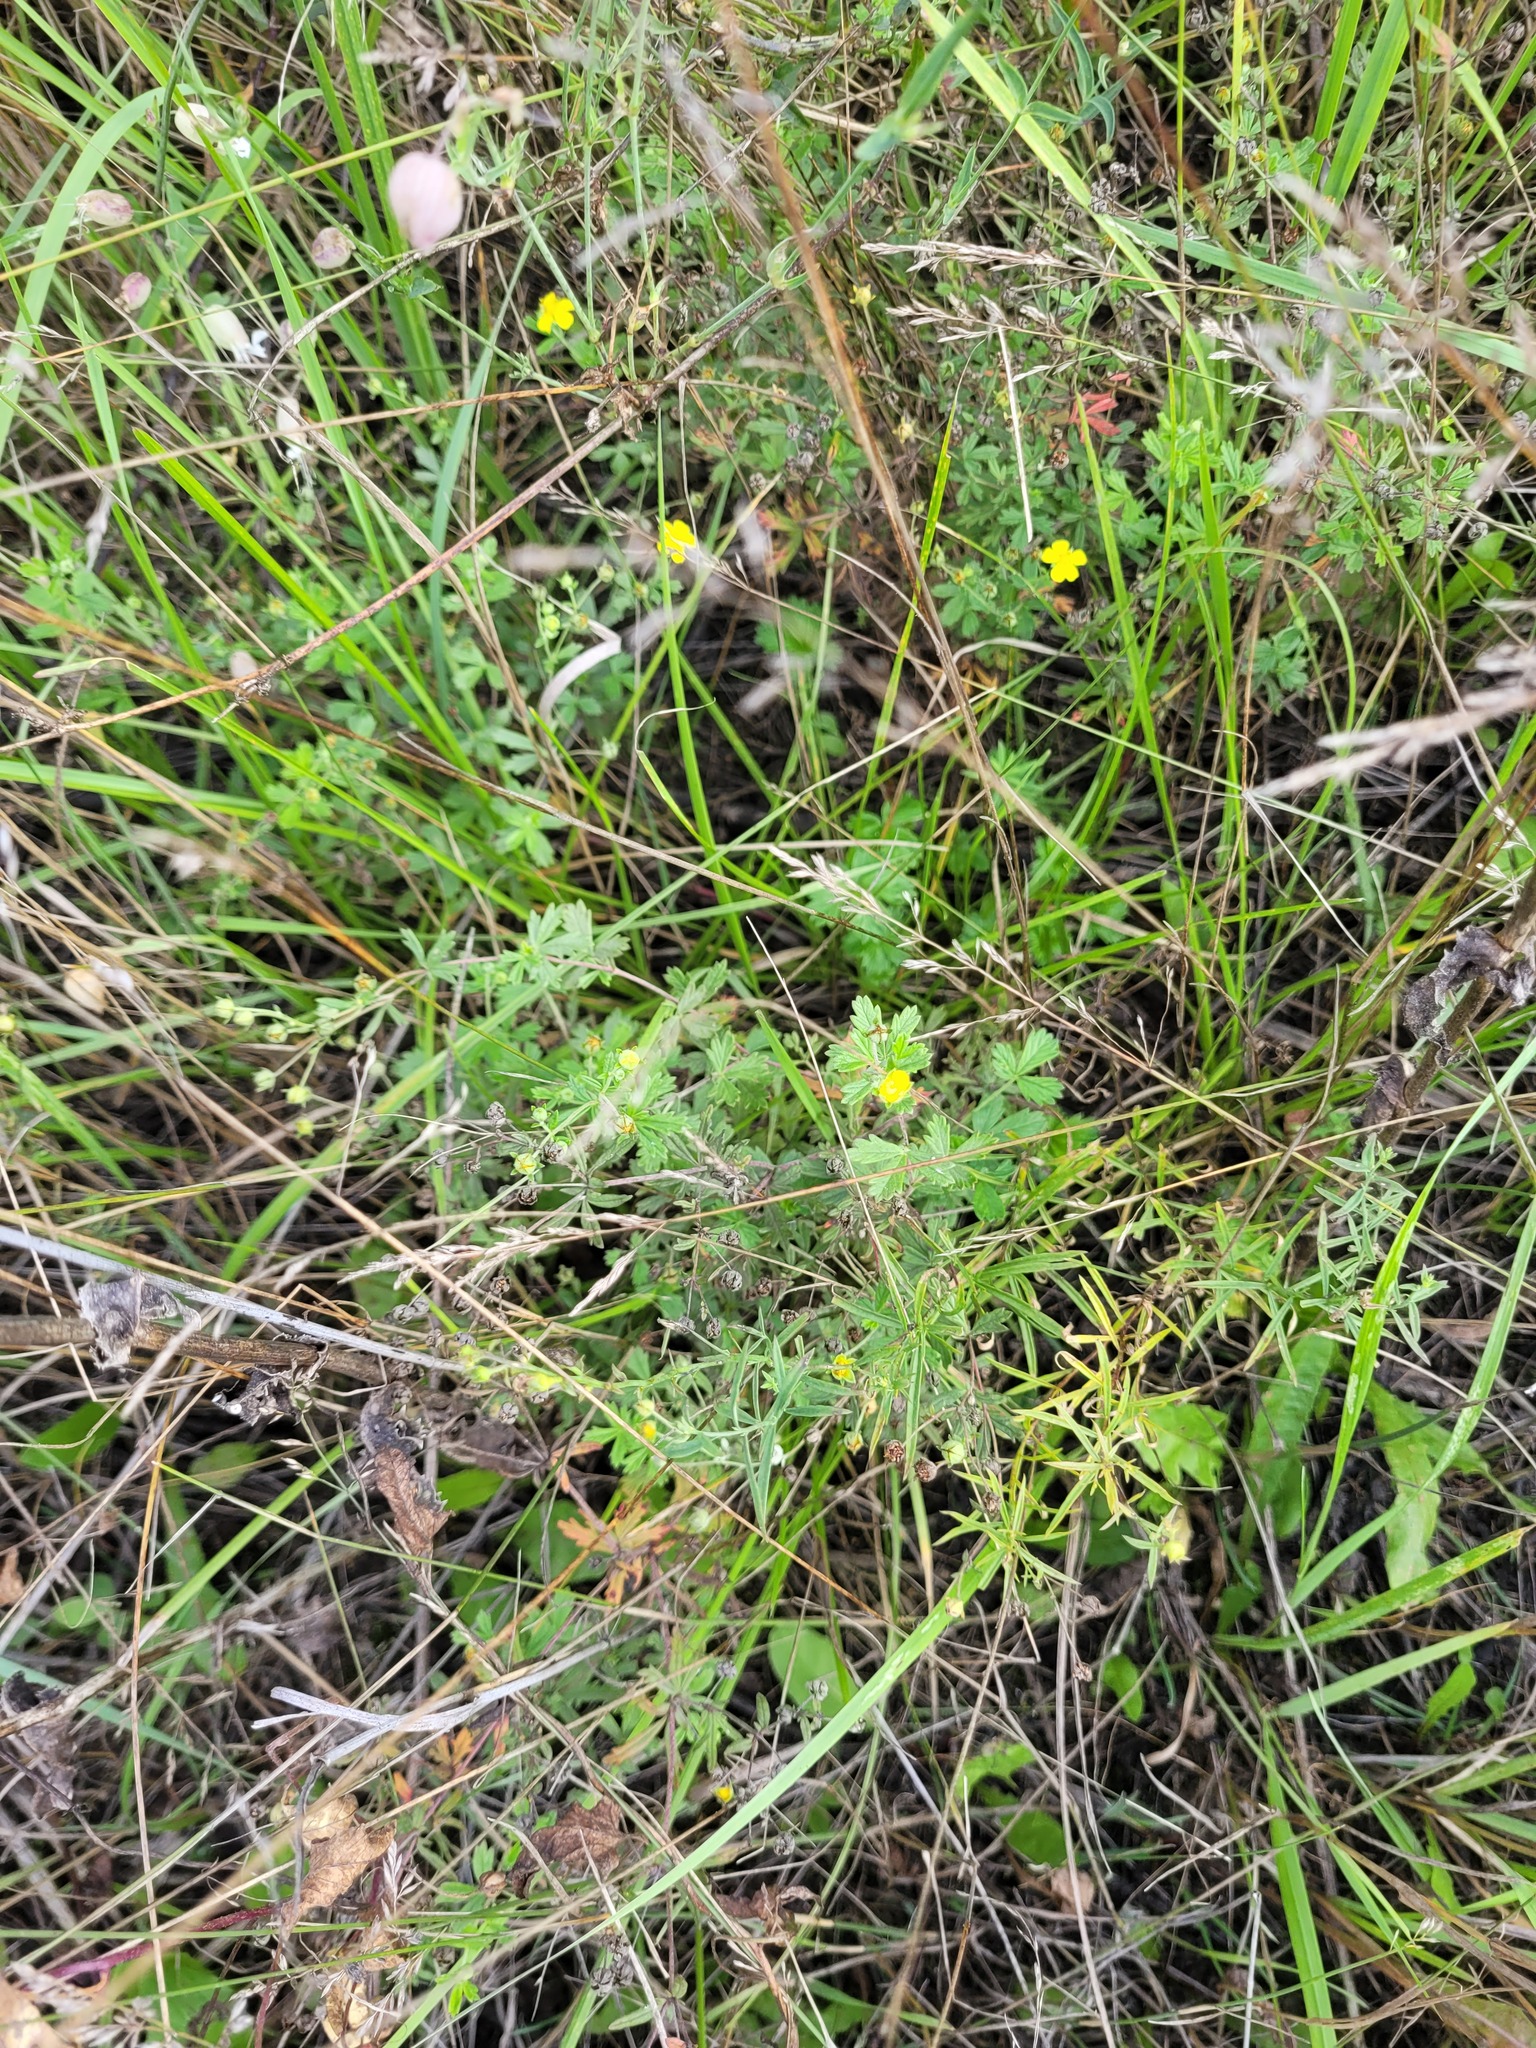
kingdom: Plantae
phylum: Tracheophyta
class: Magnoliopsida
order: Rosales
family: Rosaceae
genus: Potentilla
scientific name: Potentilla argentea
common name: Hoary cinquefoil
